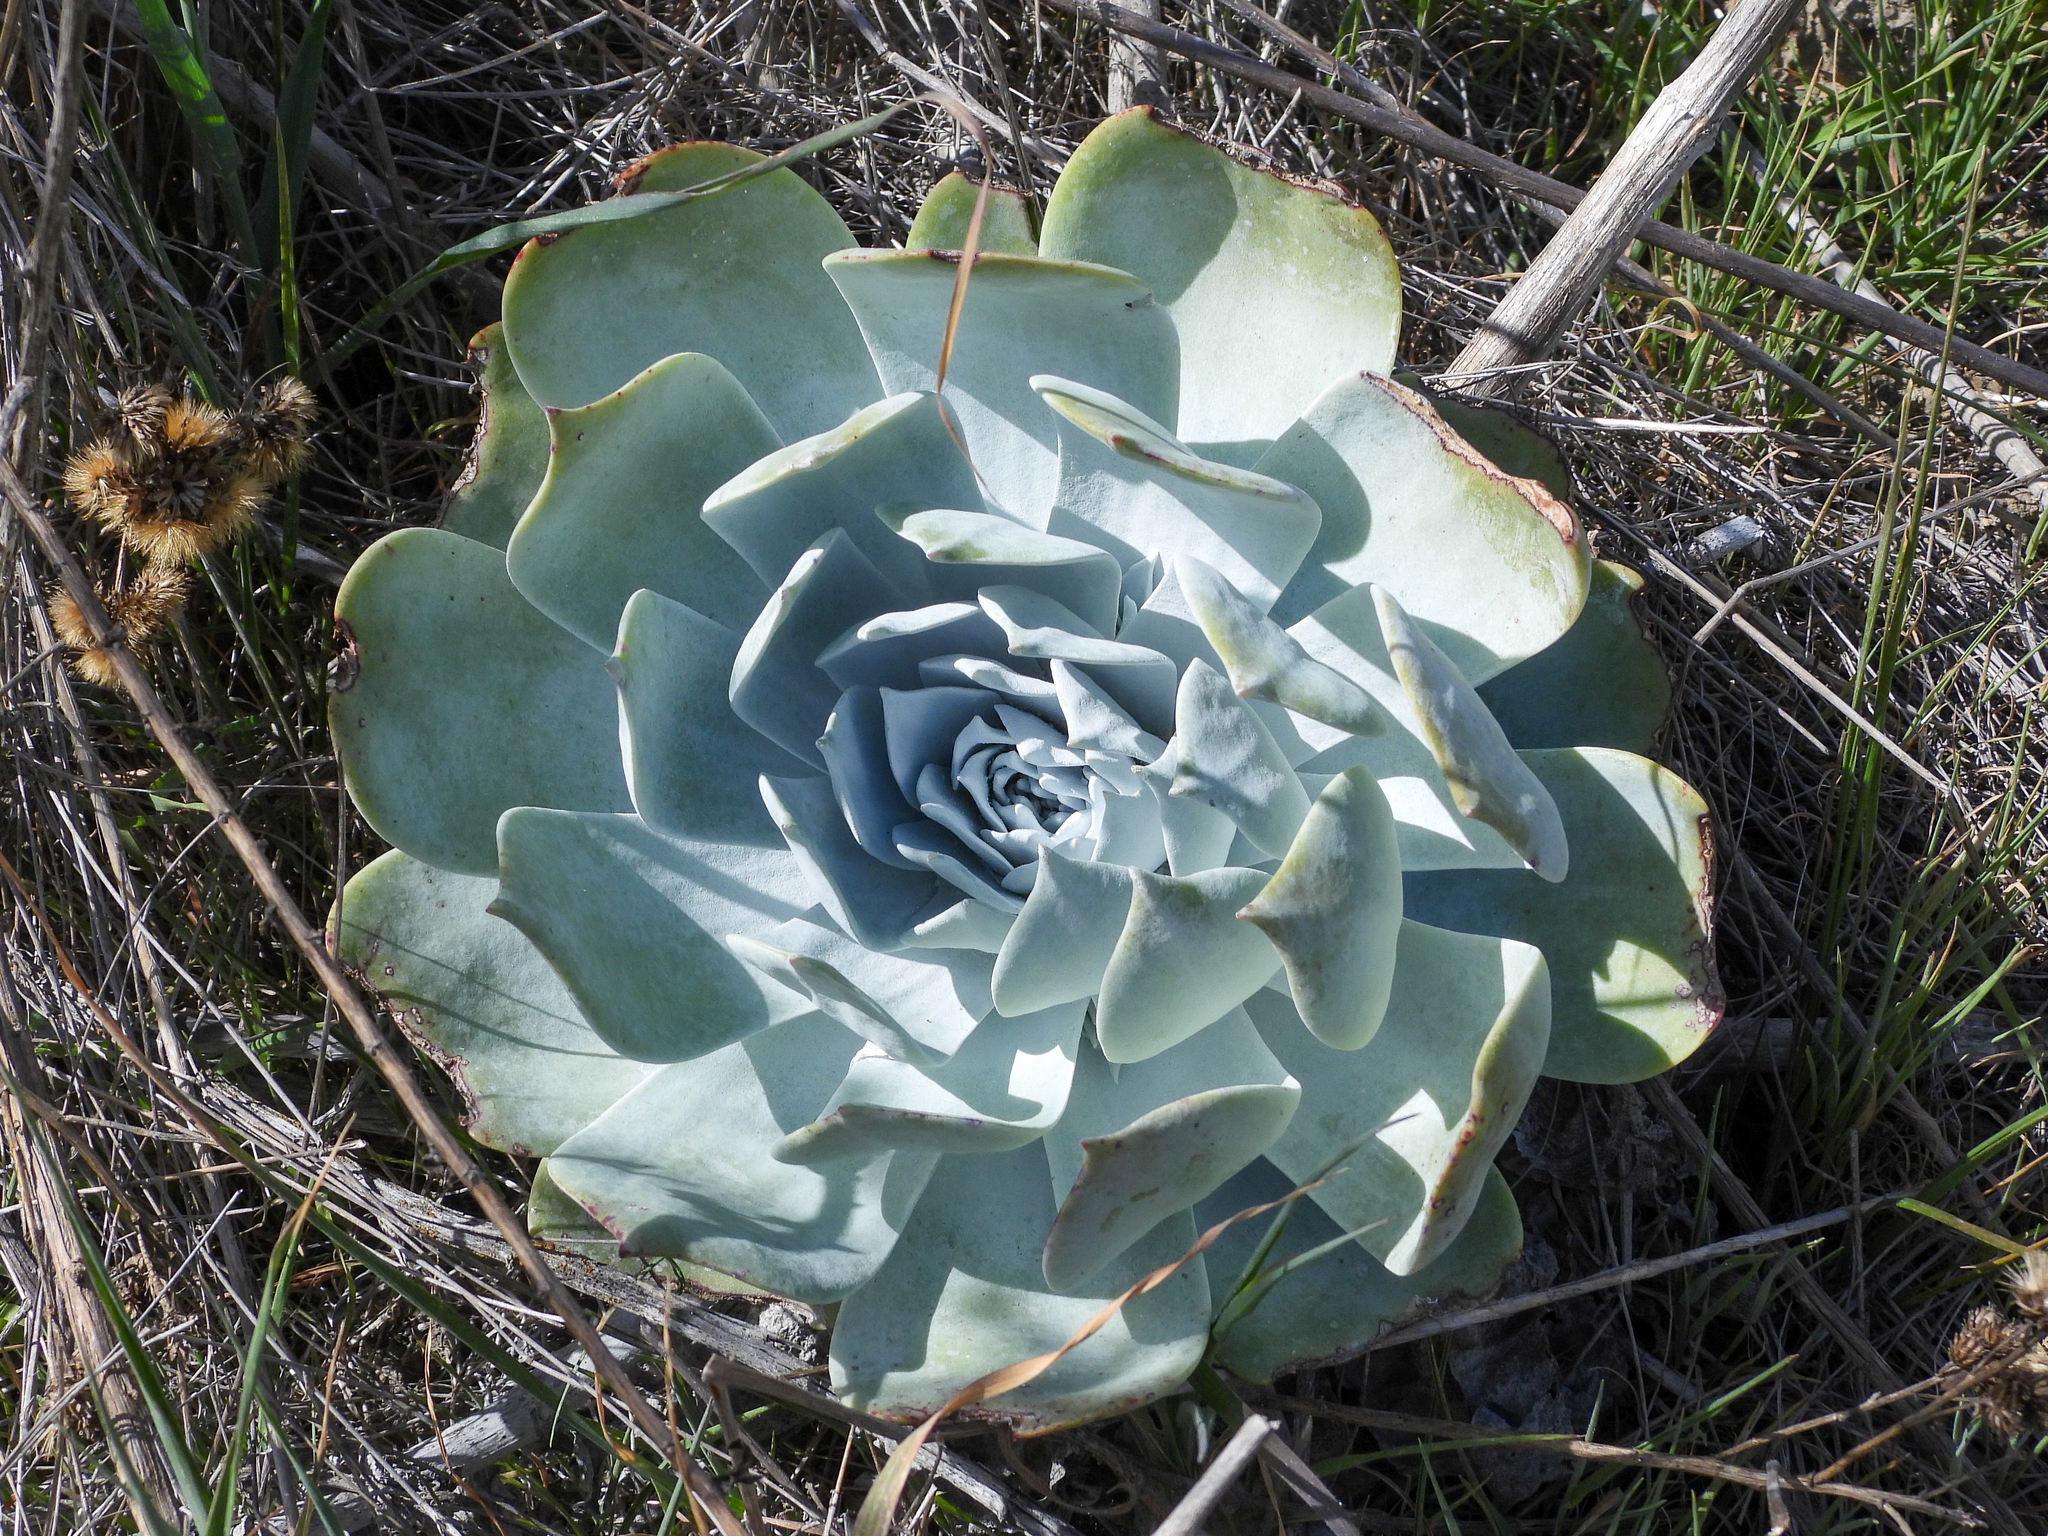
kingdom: Plantae
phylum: Tracheophyta
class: Magnoliopsida
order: Saxifragales
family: Crassulaceae
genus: Dudleya
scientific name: Dudleya pulverulenta
